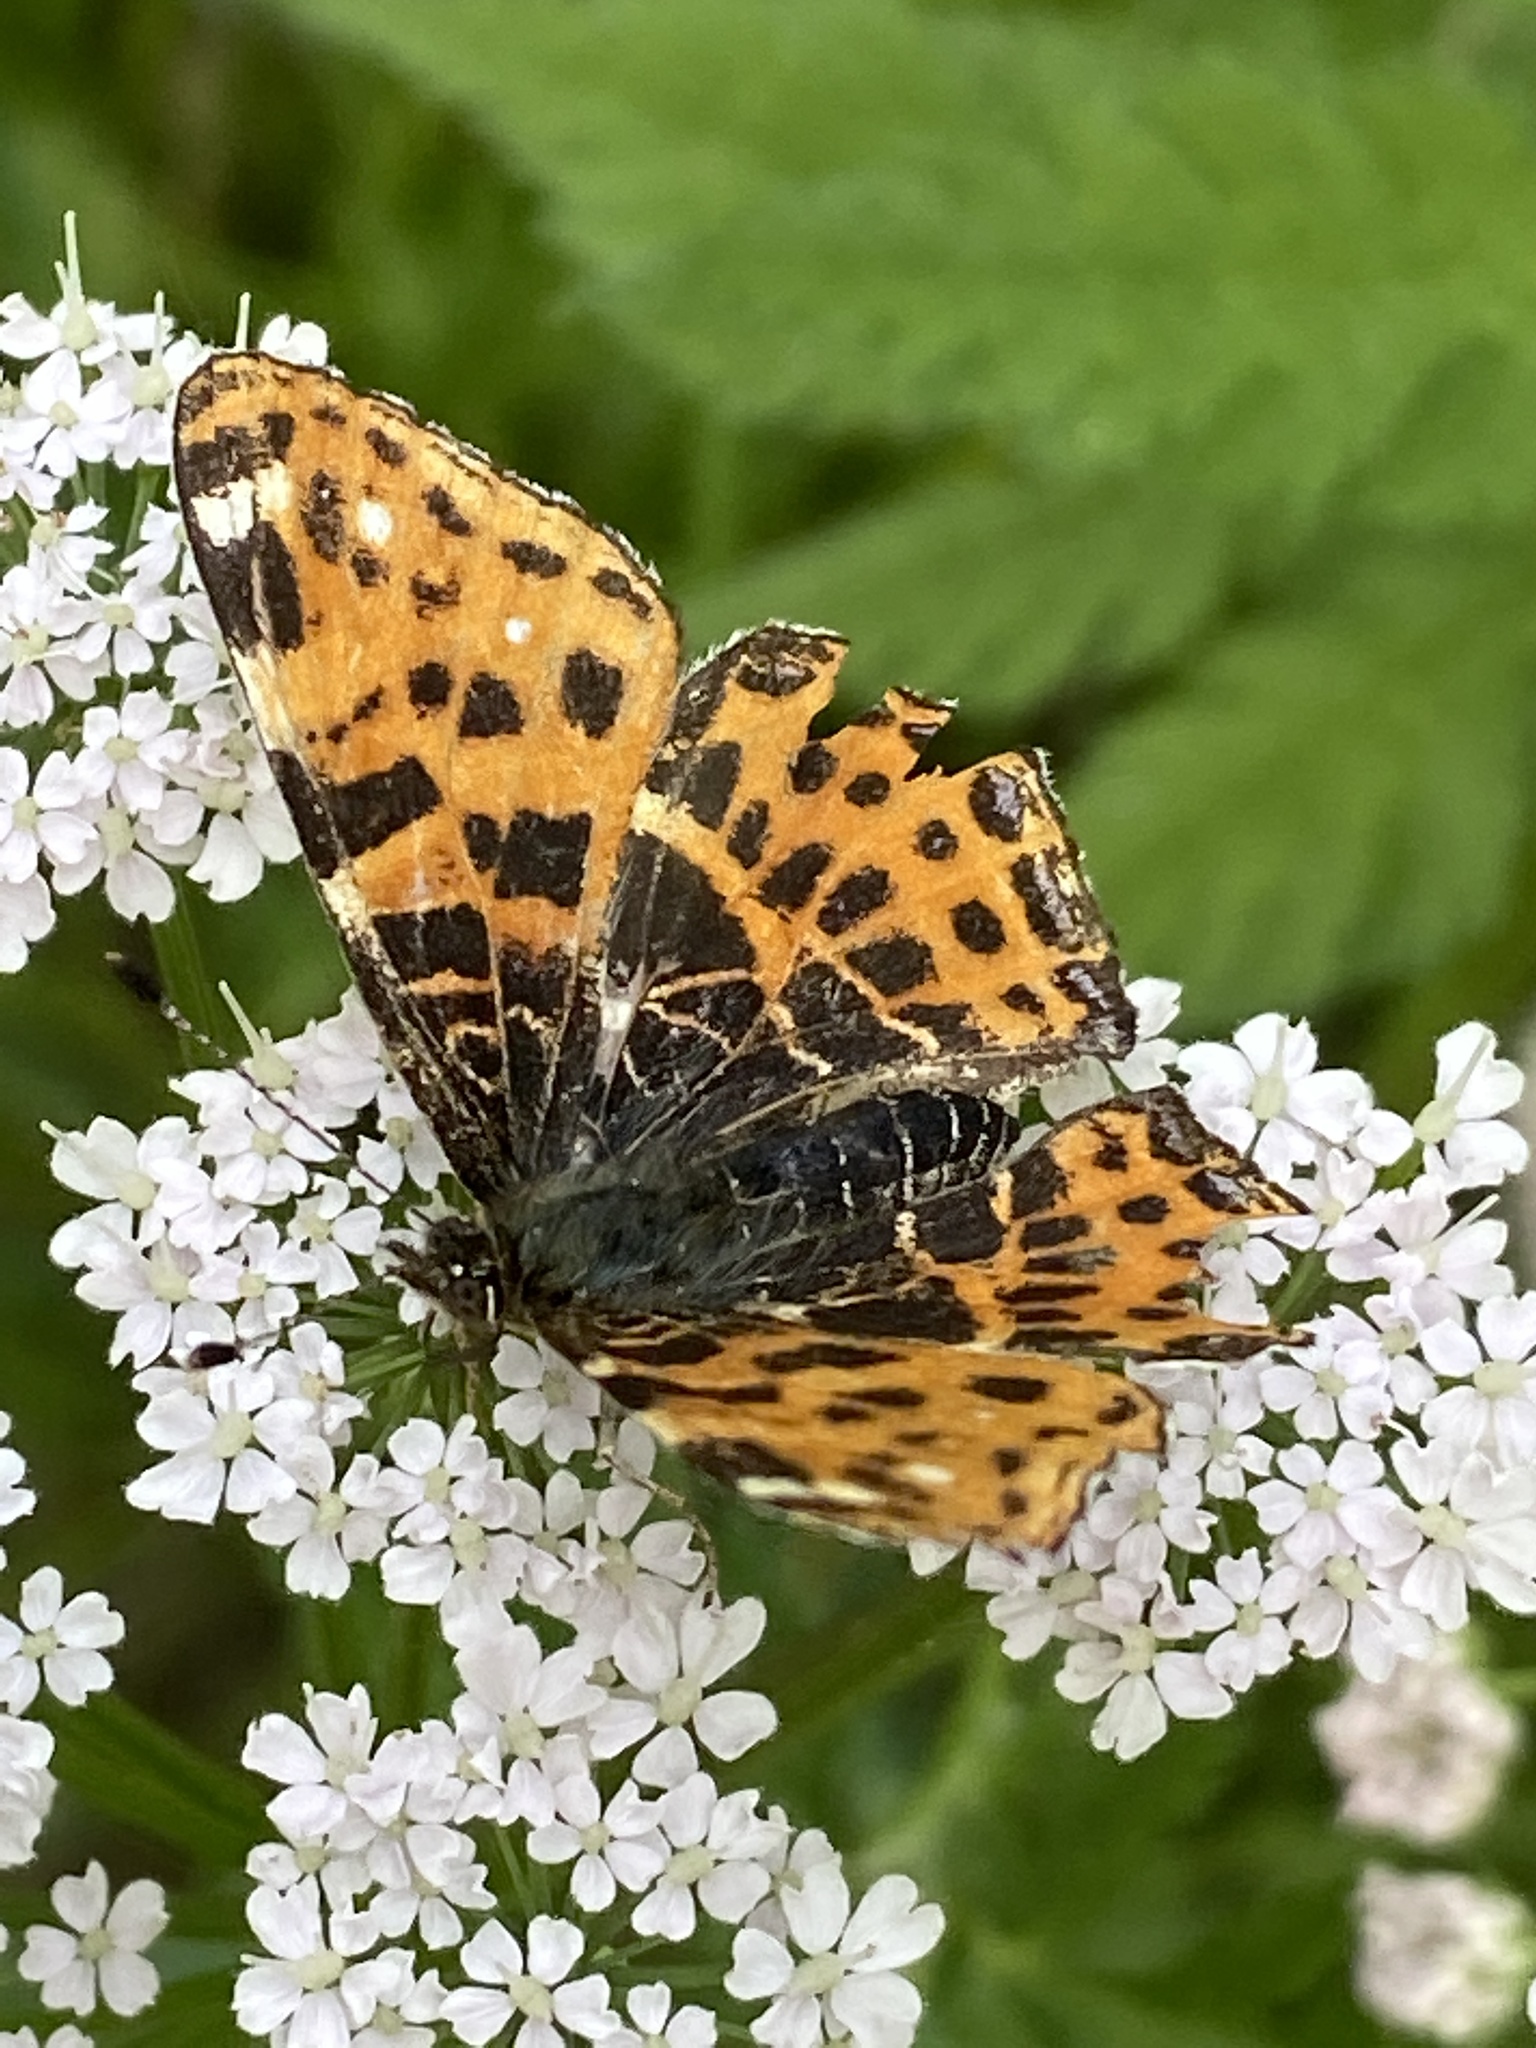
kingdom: Animalia
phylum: Arthropoda
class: Insecta
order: Lepidoptera
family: Nymphalidae
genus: Araschnia
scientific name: Araschnia levana
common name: Map butterfly
